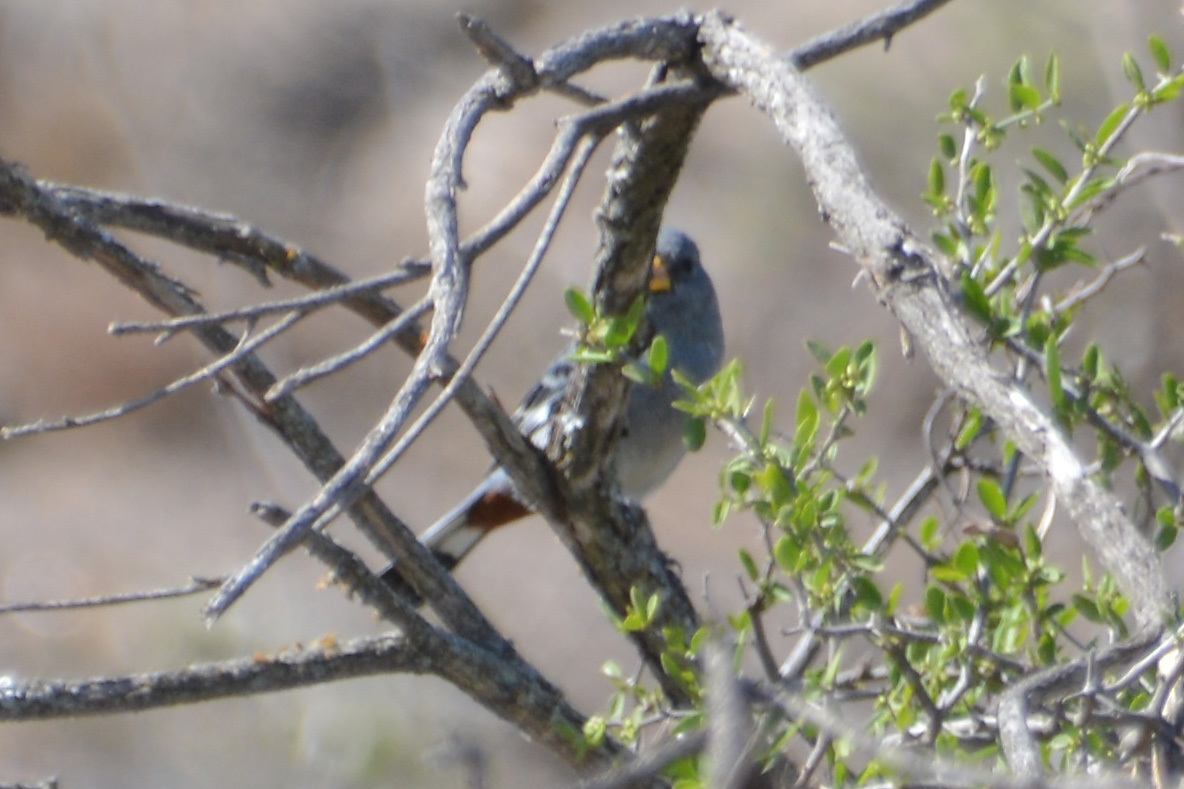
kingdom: Animalia
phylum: Chordata
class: Aves
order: Passeriformes
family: Thraupidae
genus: Catamenia
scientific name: Catamenia analis
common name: Band-tailed seedeater
